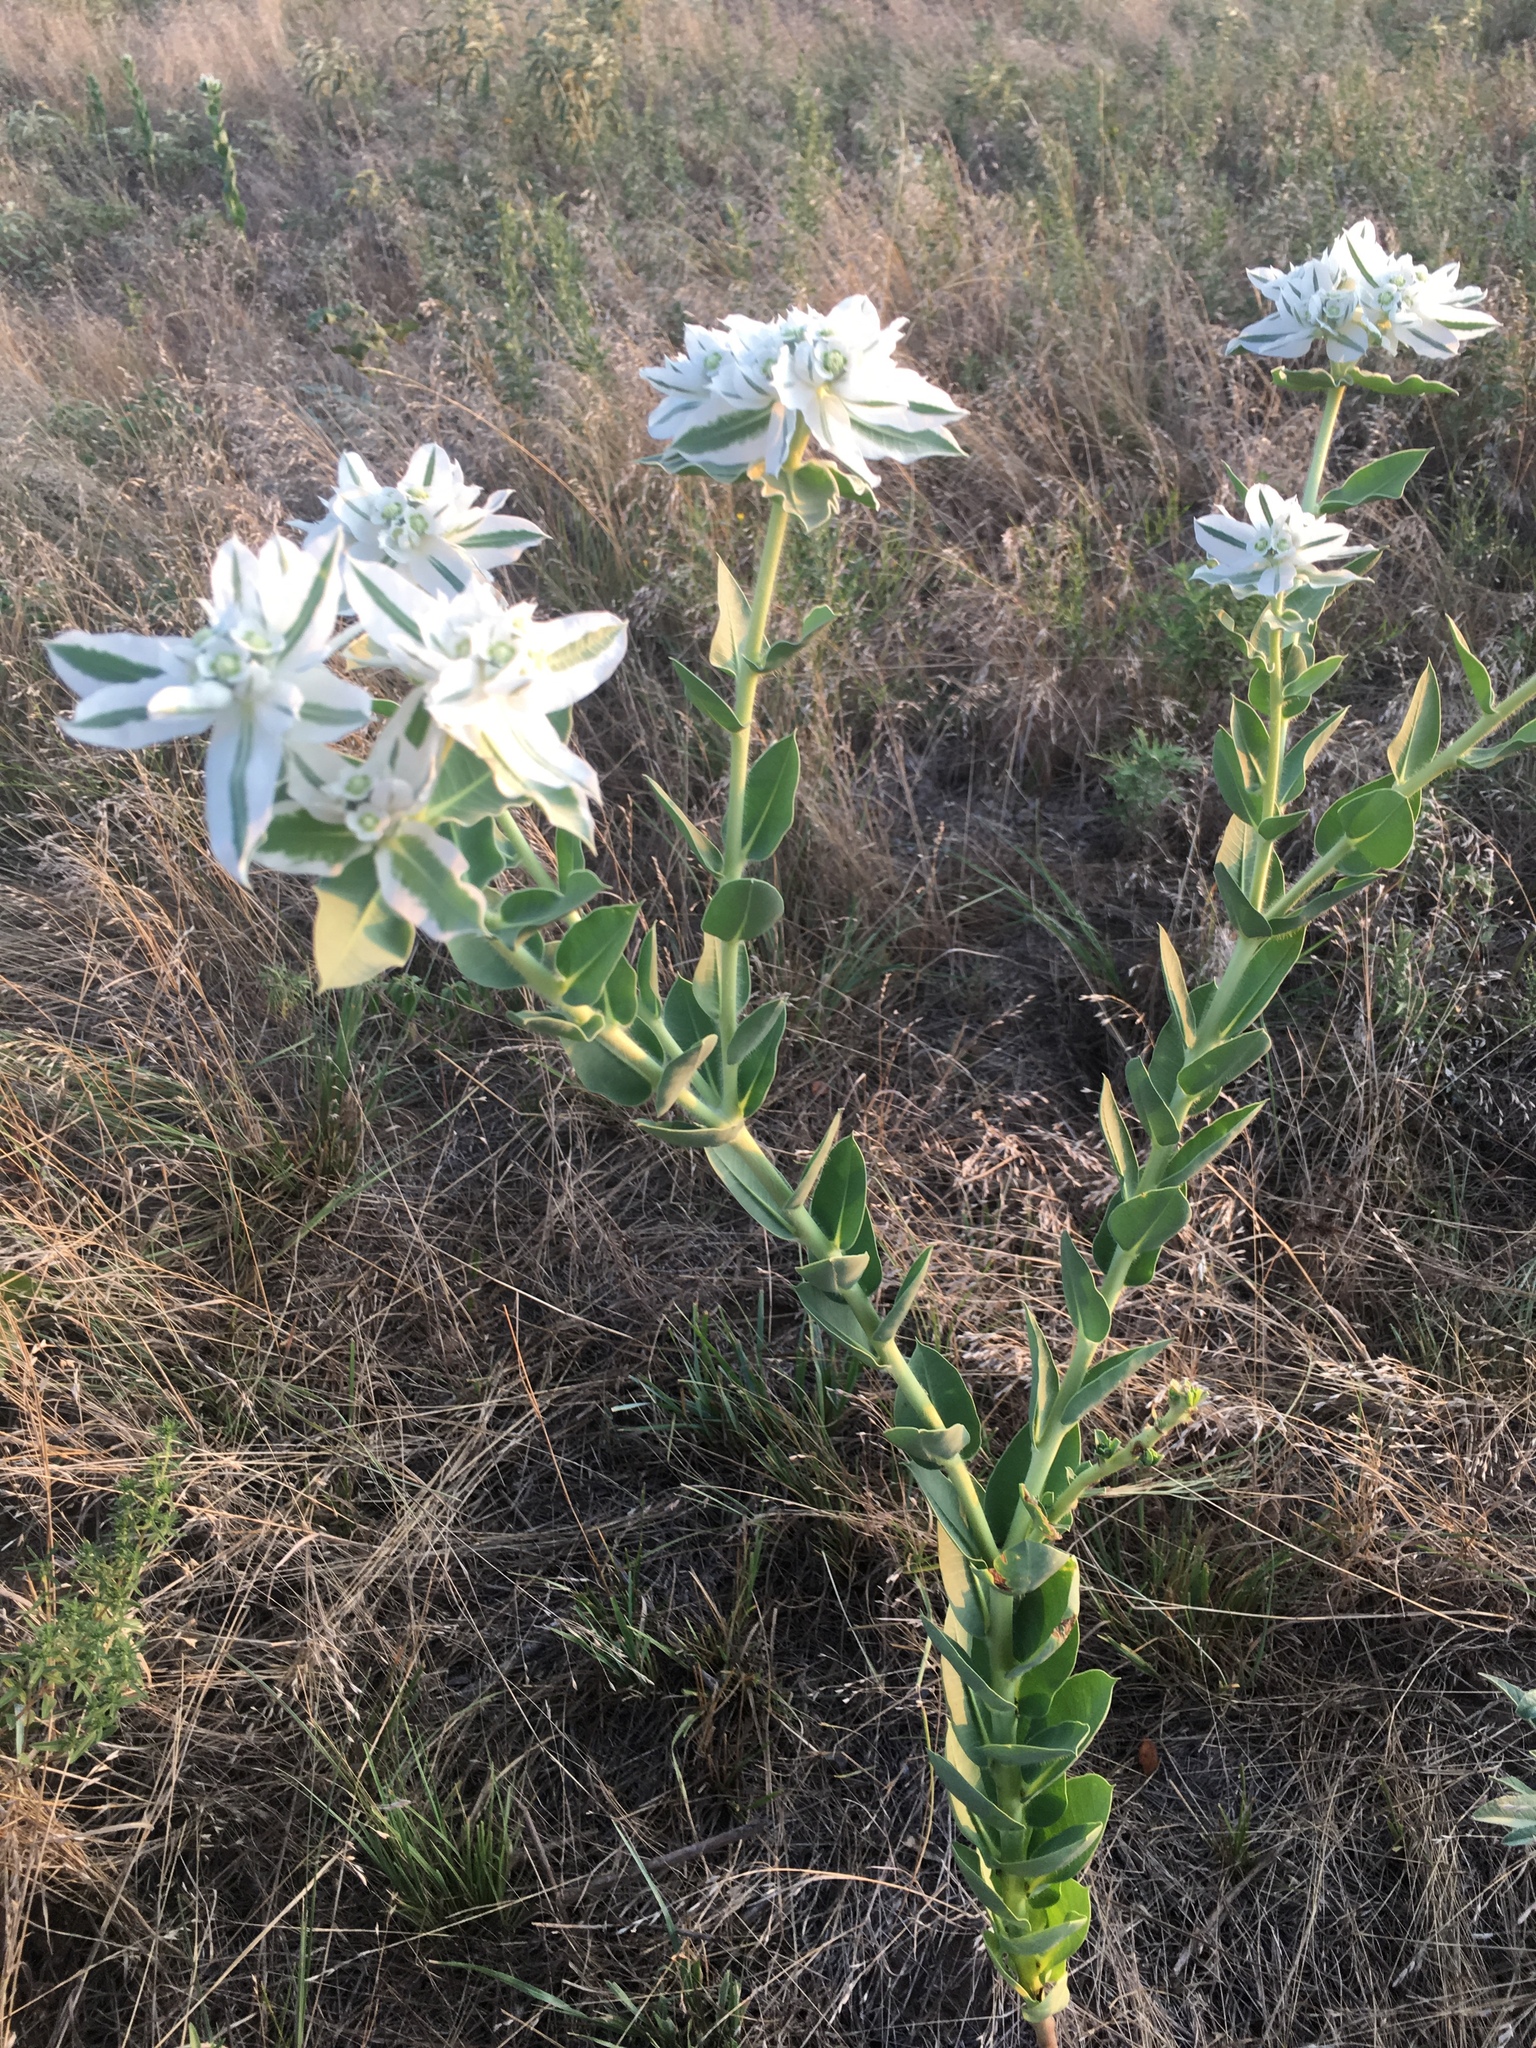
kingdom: Plantae
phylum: Tracheophyta
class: Magnoliopsida
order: Malpighiales
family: Euphorbiaceae
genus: Euphorbia
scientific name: Euphorbia marginata
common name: Ghostweed
